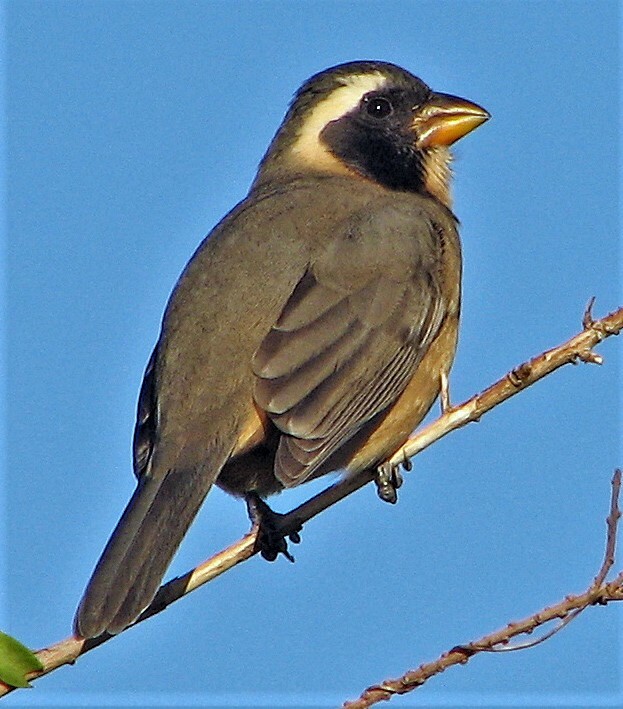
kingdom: Animalia
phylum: Chordata
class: Aves
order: Passeriformes
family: Thraupidae
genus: Saltator
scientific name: Saltator aurantiirostris
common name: Golden-billed saltator
